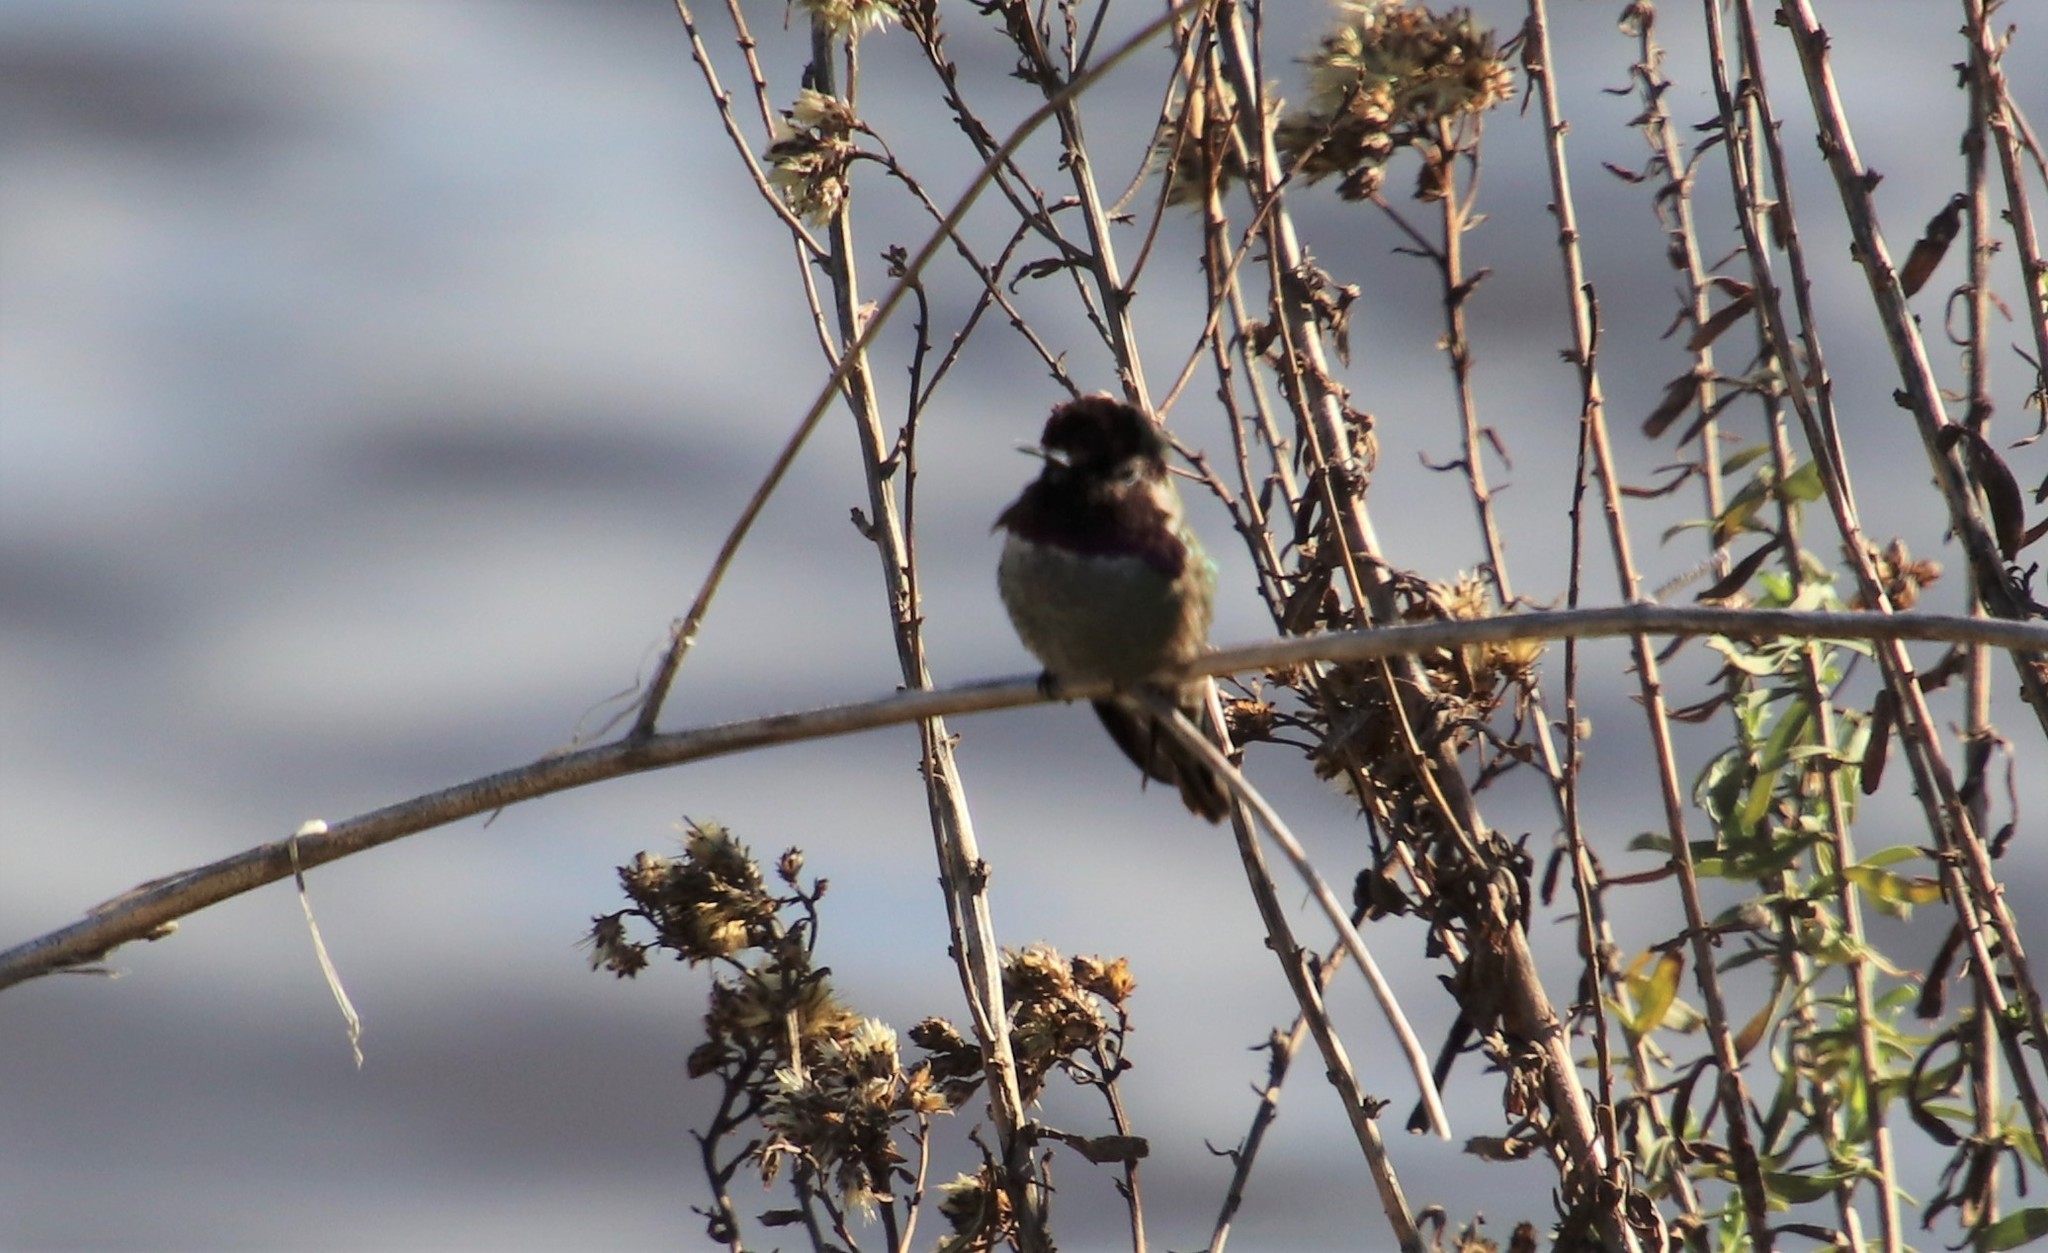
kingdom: Animalia
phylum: Chordata
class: Aves
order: Apodiformes
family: Trochilidae
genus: Calypte
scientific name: Calypte anna
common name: Anna's hummingbird
